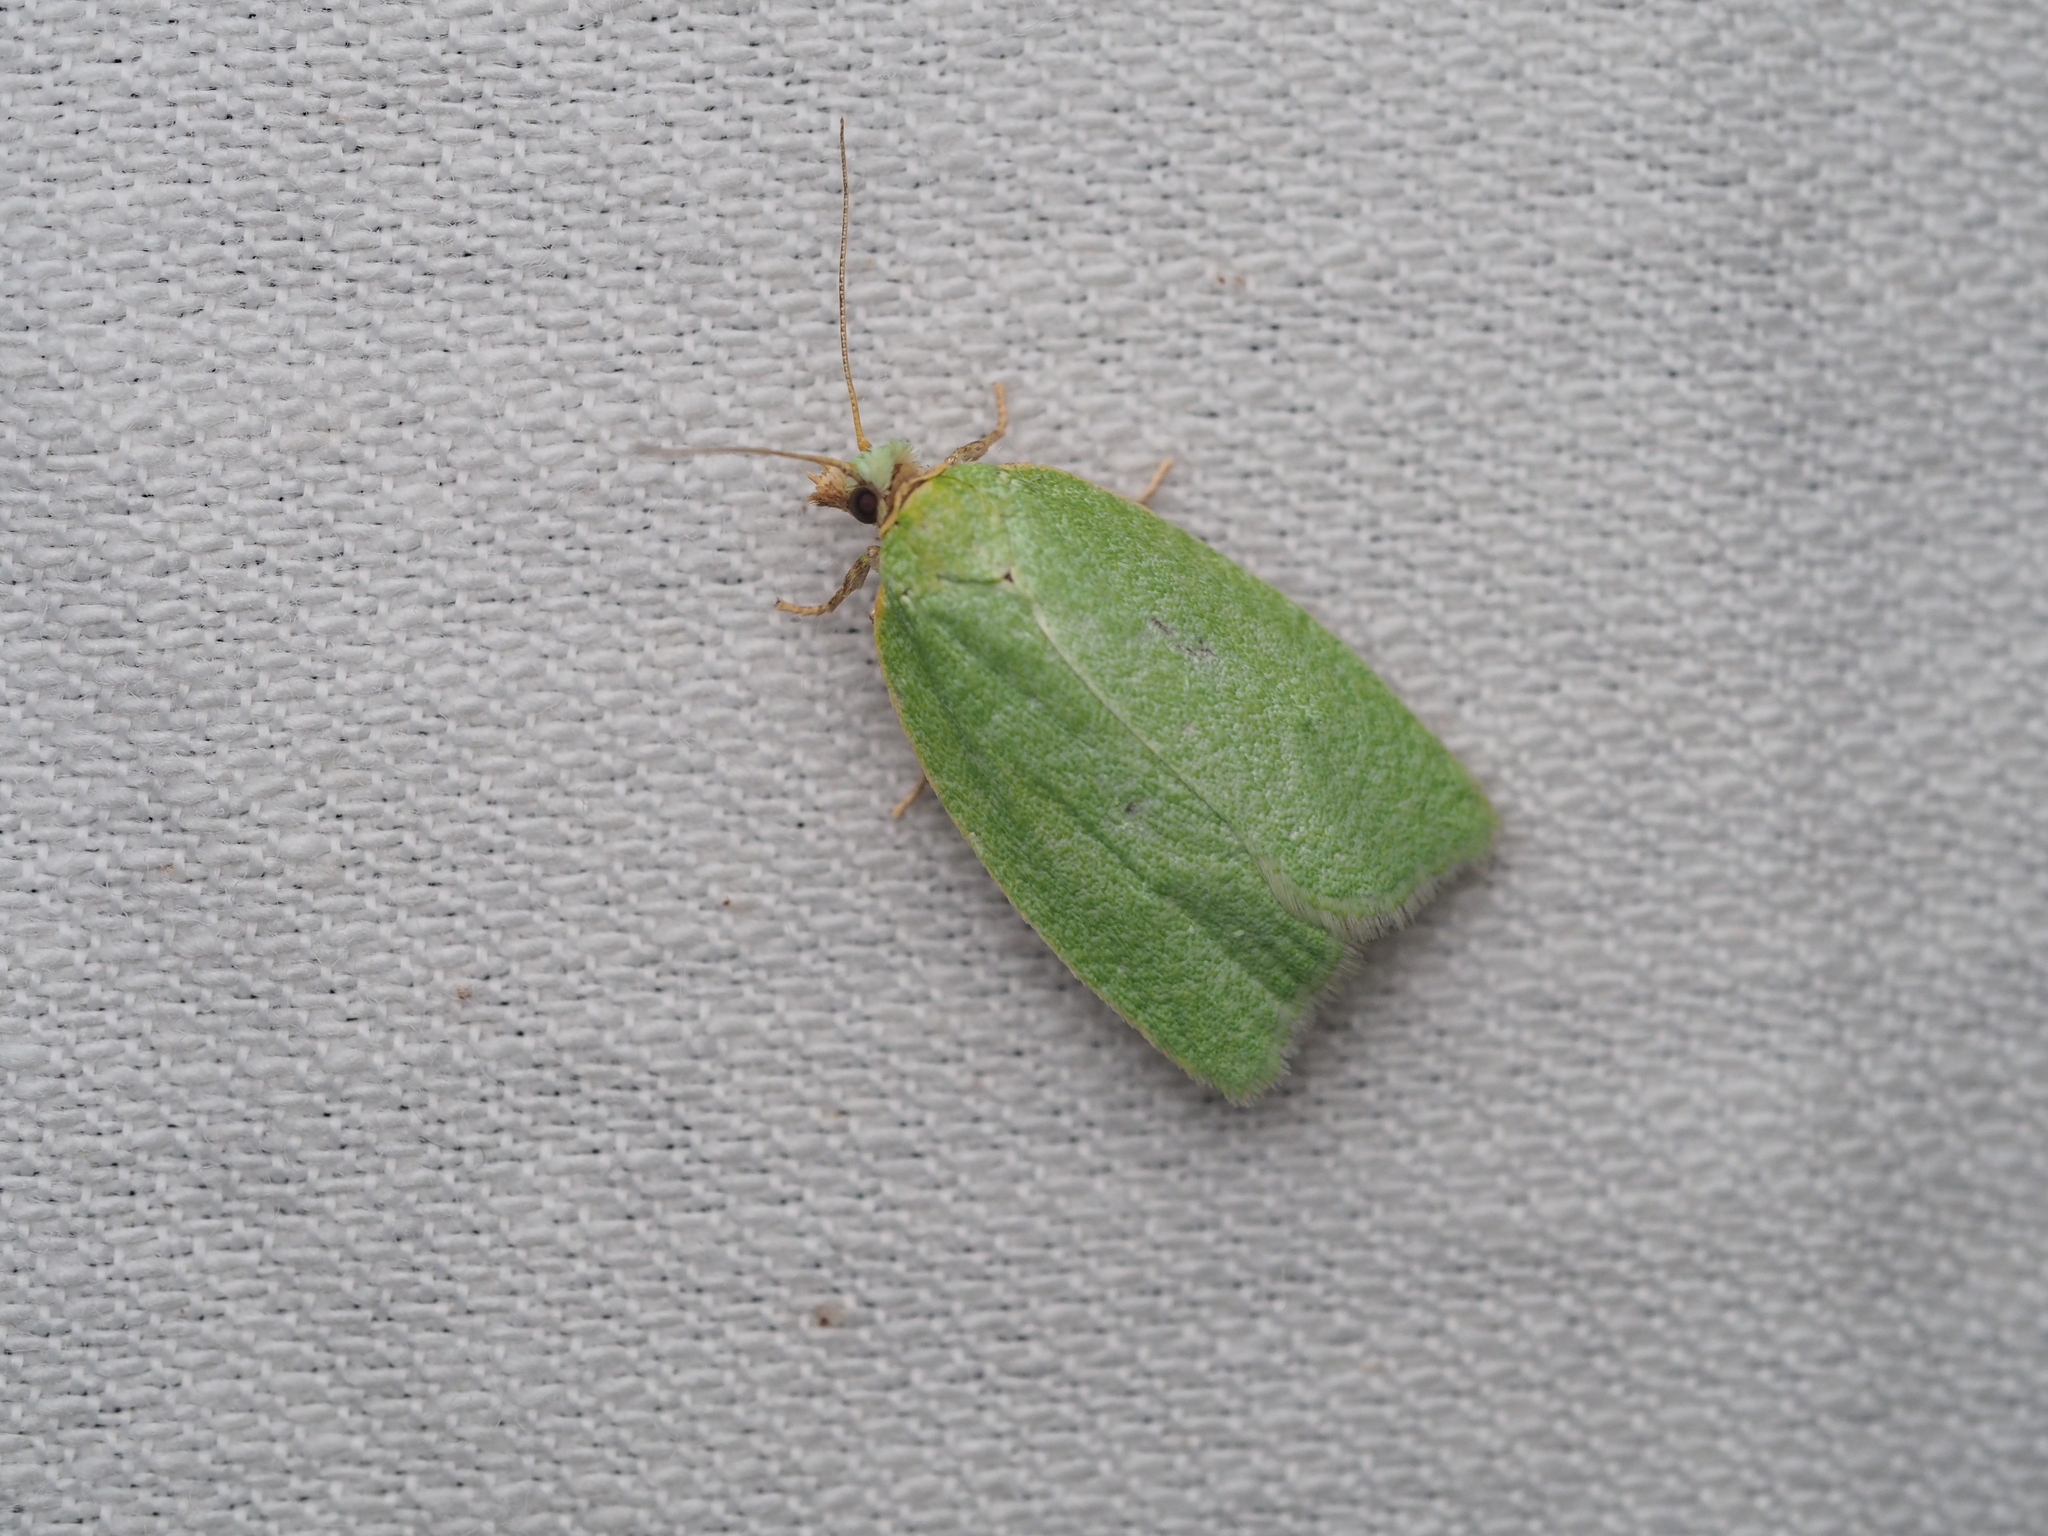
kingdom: Animalia
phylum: Arthropoda
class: Insecta
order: Lepidoptera
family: Tortricidae
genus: Tortrix
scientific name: Tortrix viridana
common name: Green oak tortrix
